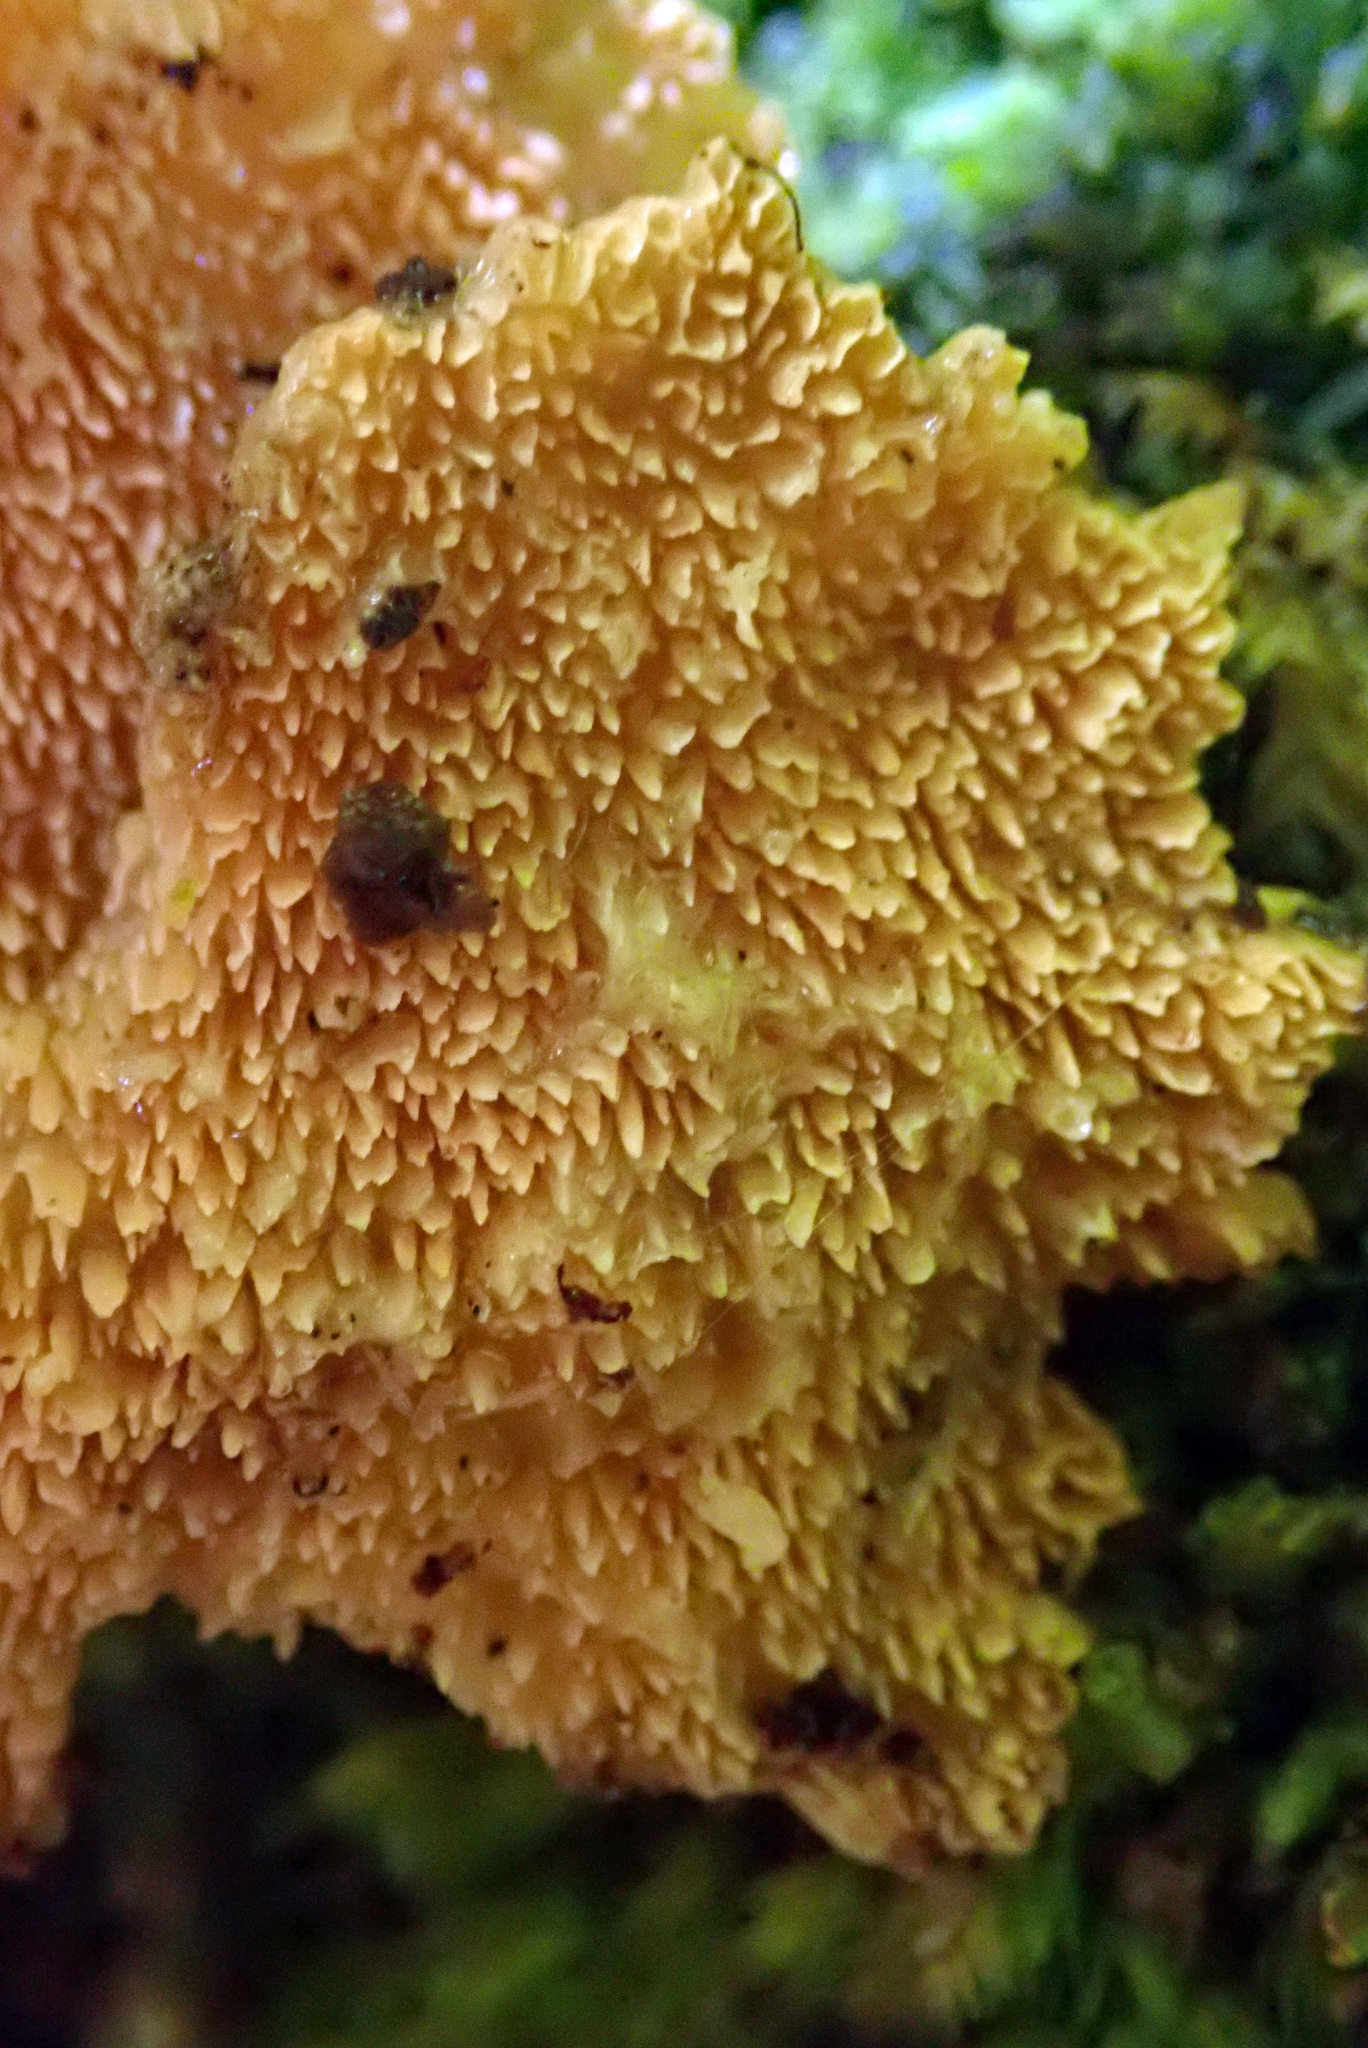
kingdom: Fungi
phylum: Basidiomycota
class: Agaricomycetes
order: Polyporales
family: Cerrenaceae
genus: Cerrena
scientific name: Cerrena zonata
